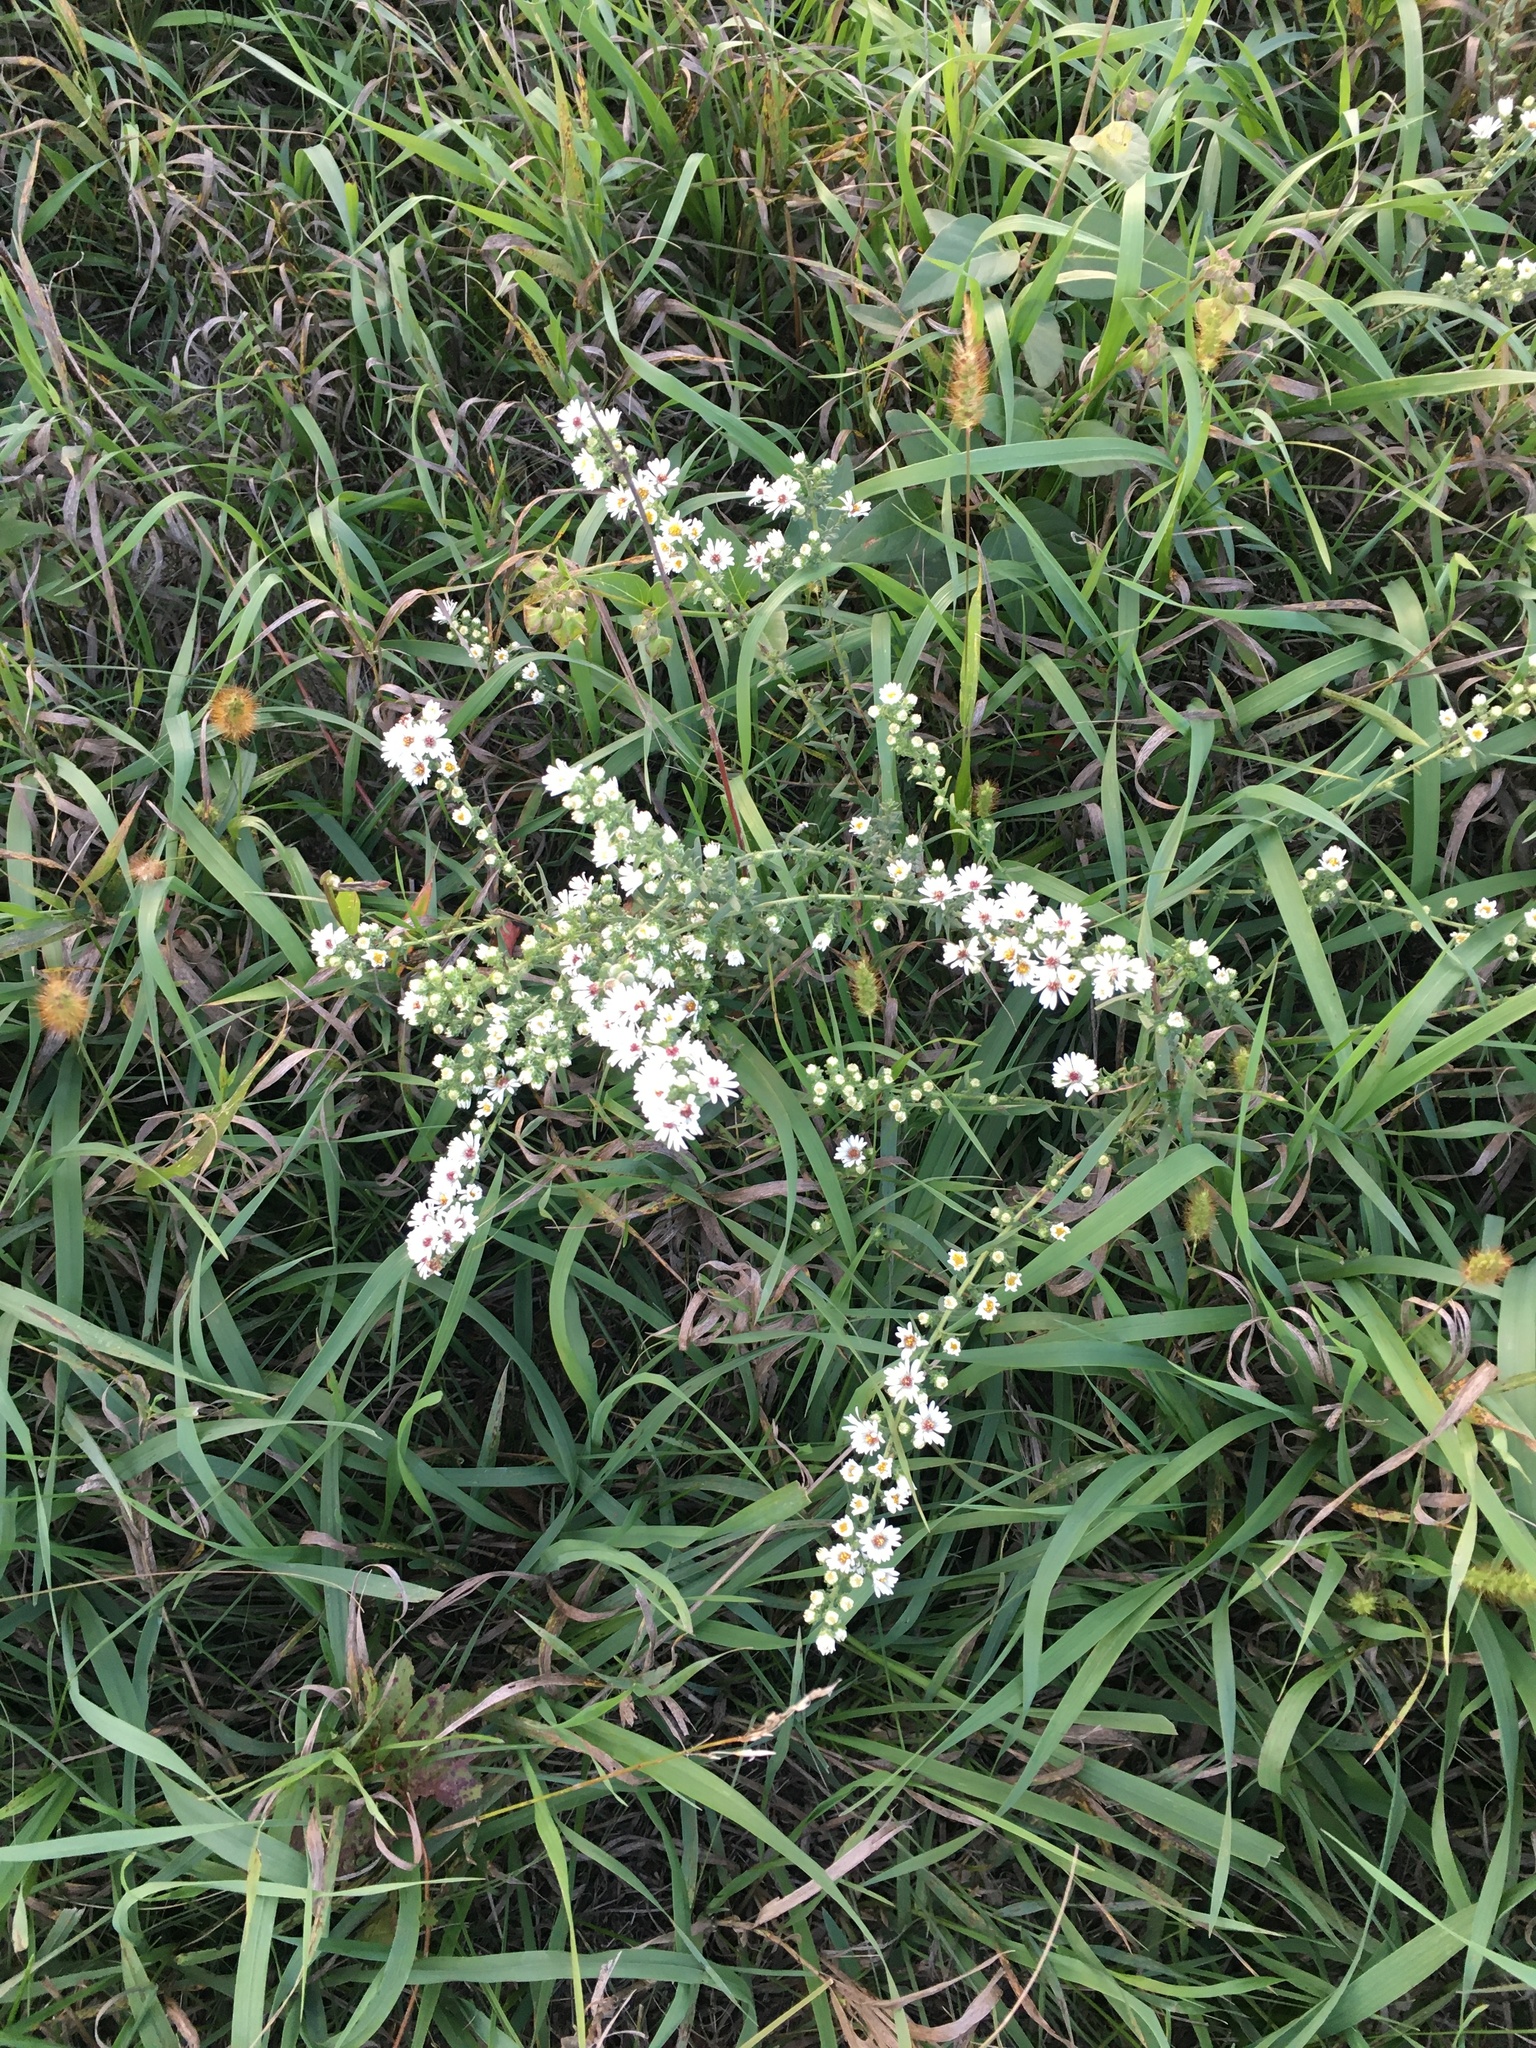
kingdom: Plantae
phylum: Tracheophyta
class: Magnoliopsida
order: Asterales
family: Asteraceae
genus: Symphyotrichum
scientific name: Symphyotrichum ericoides
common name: Heath aster
